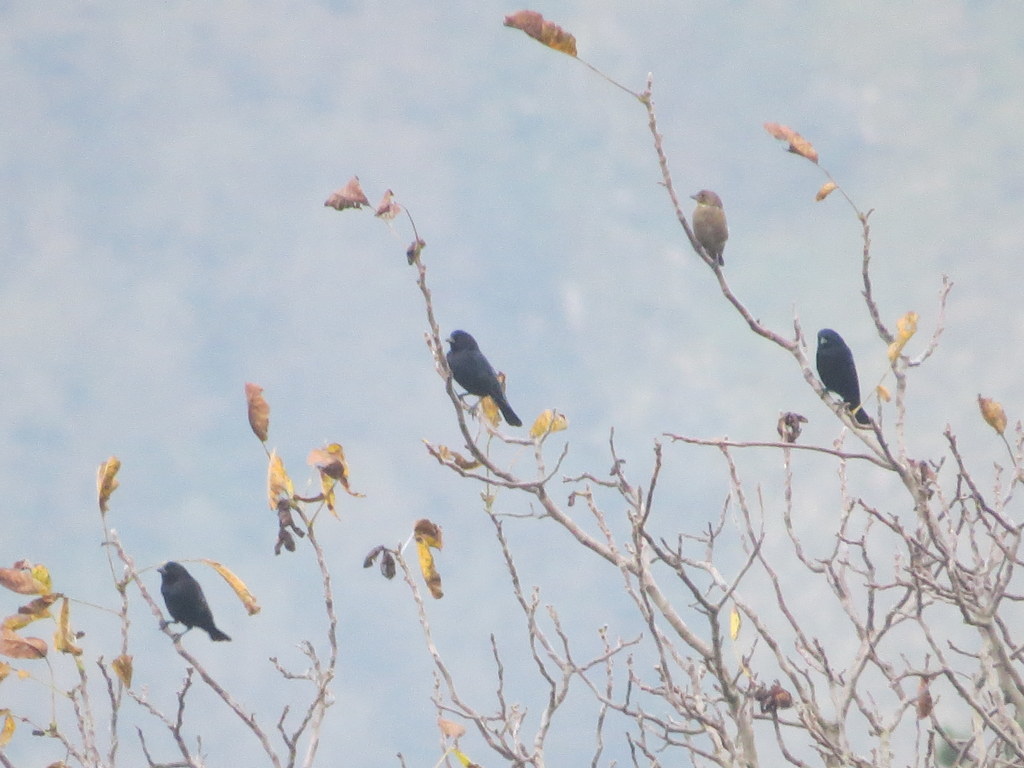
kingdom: Animalia
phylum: Chordata
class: Aves
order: Passeriformes
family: Icteridae
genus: Molothrus
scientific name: Molothrus bonariensis
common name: Shiny cowbird
